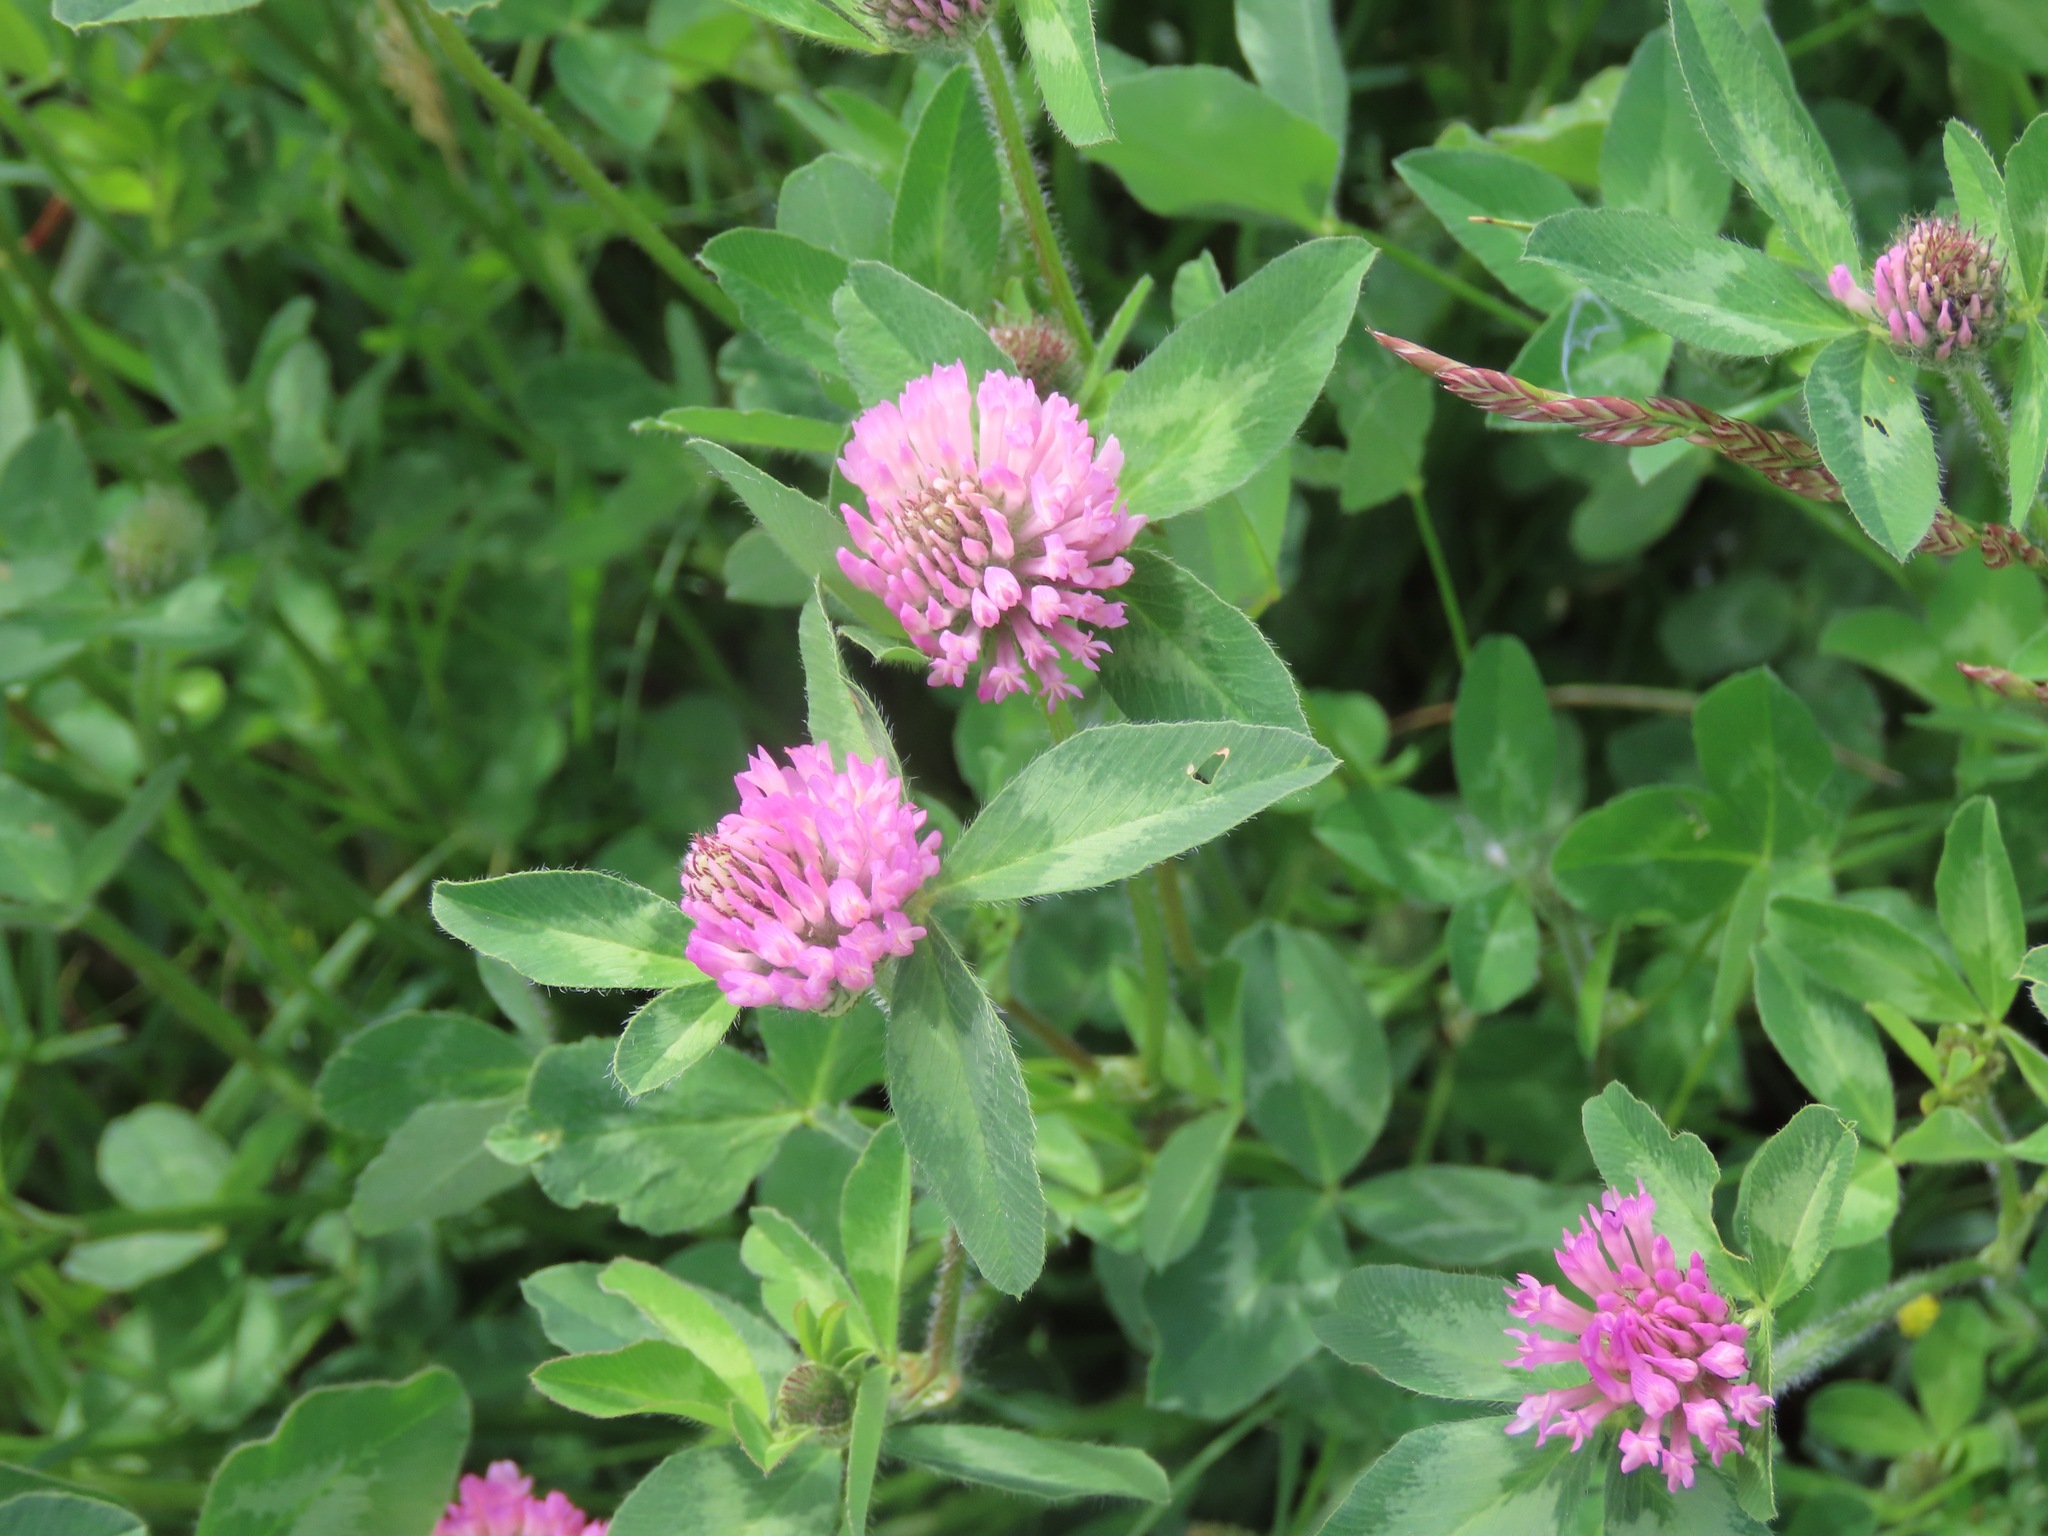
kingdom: Plantae
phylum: Tracheophyta
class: Magnoliopsida
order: Fabales
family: Fabaceae
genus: Trifolium
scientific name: Trifolium pratense
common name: Red clover
